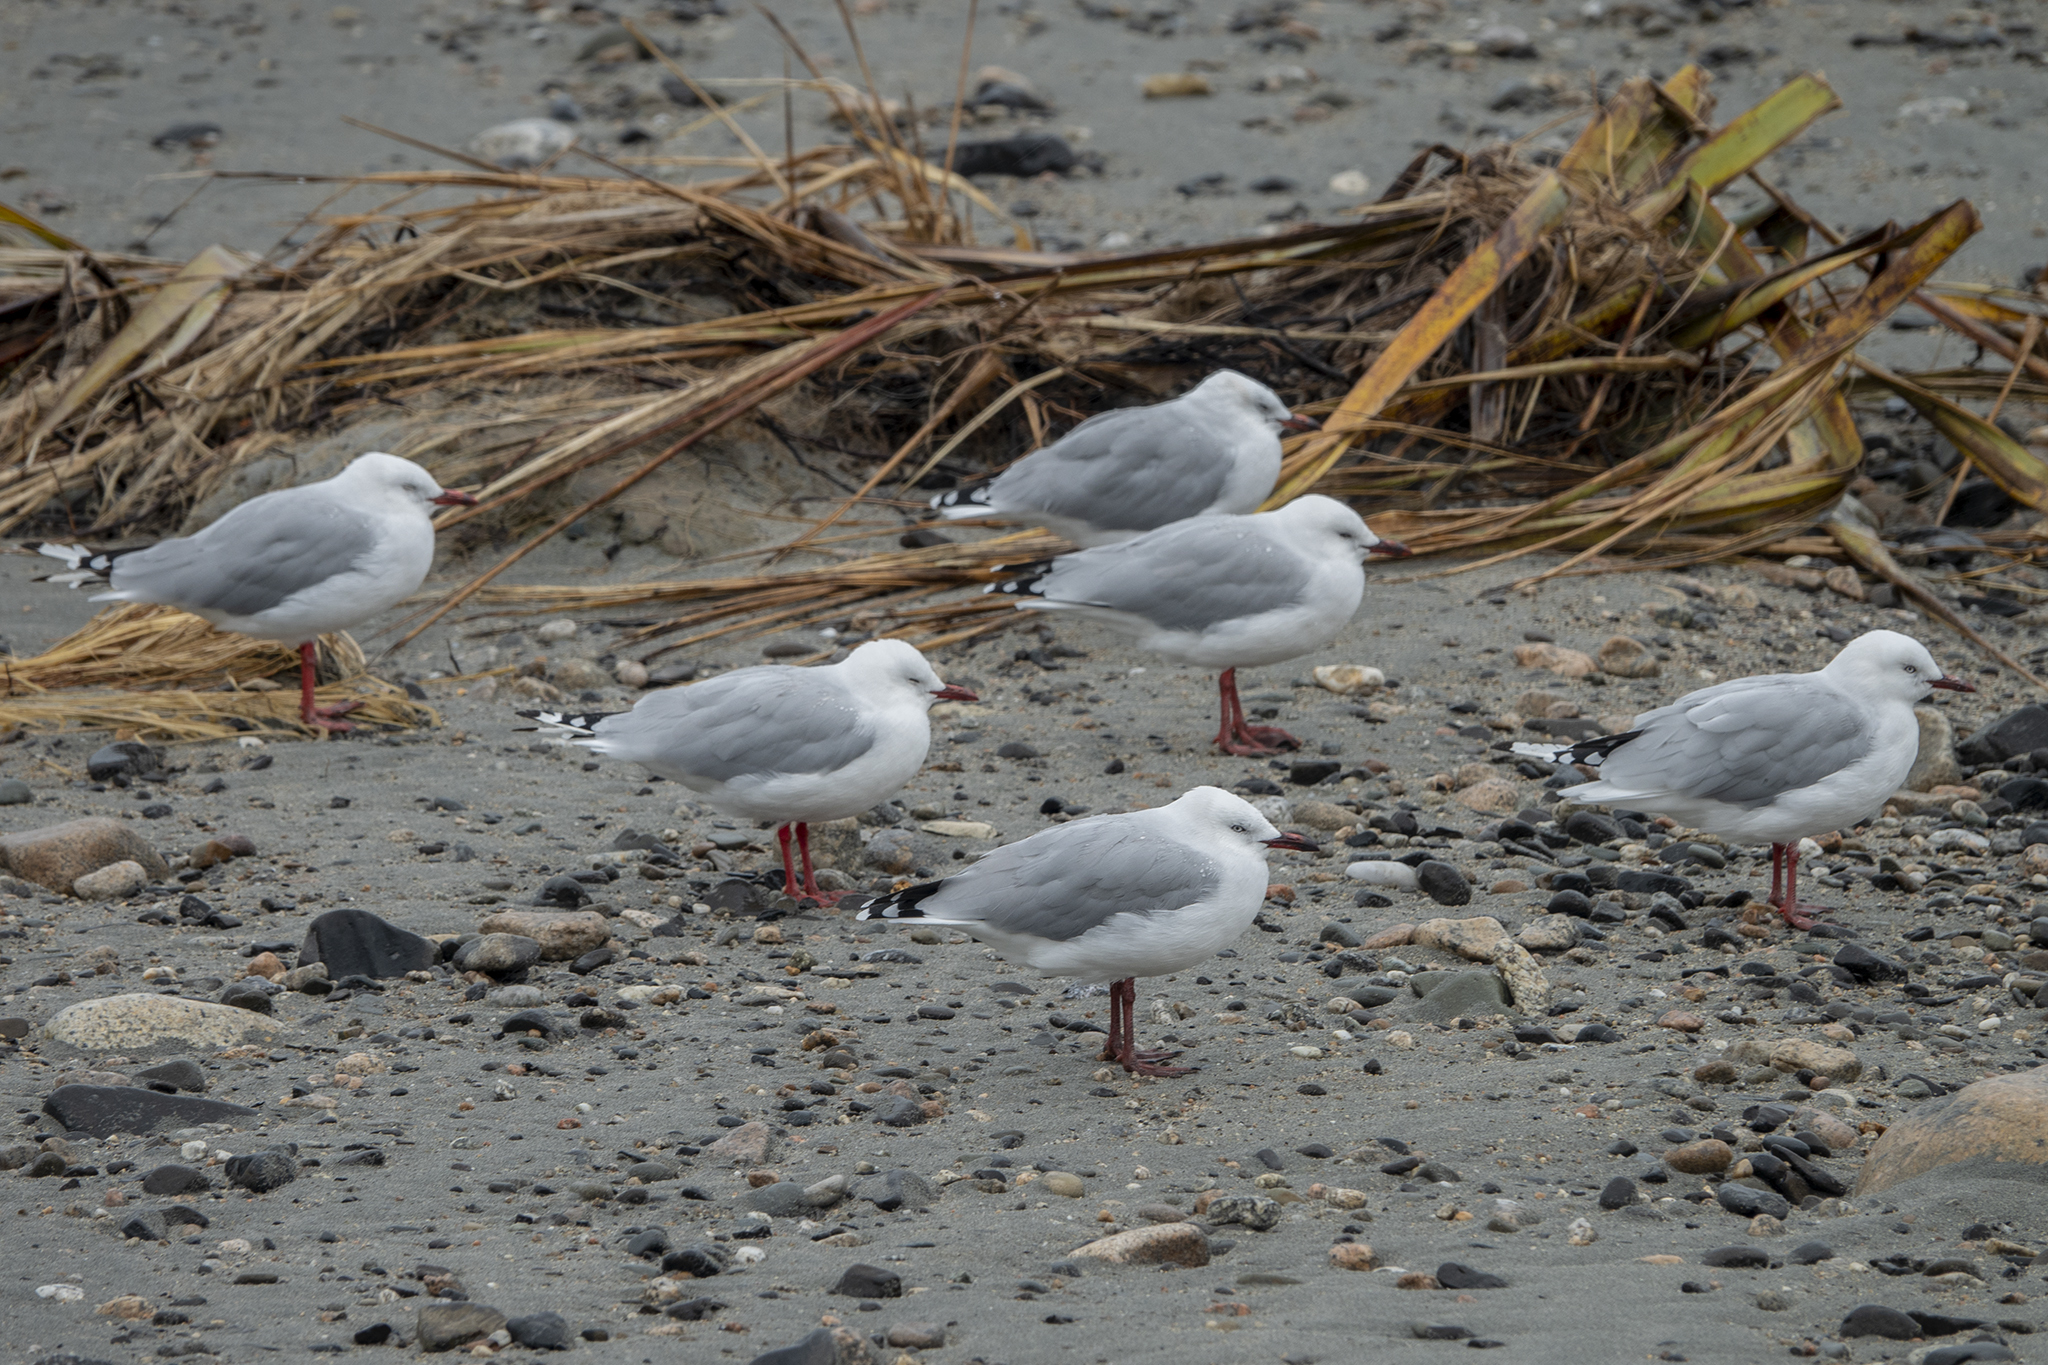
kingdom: Animalia
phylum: Chordata
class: Aves
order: Charadriiformes
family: Laridae
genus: Chroicocephalus
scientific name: Chroicocephalus novaehollandiae
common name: Silver gull
